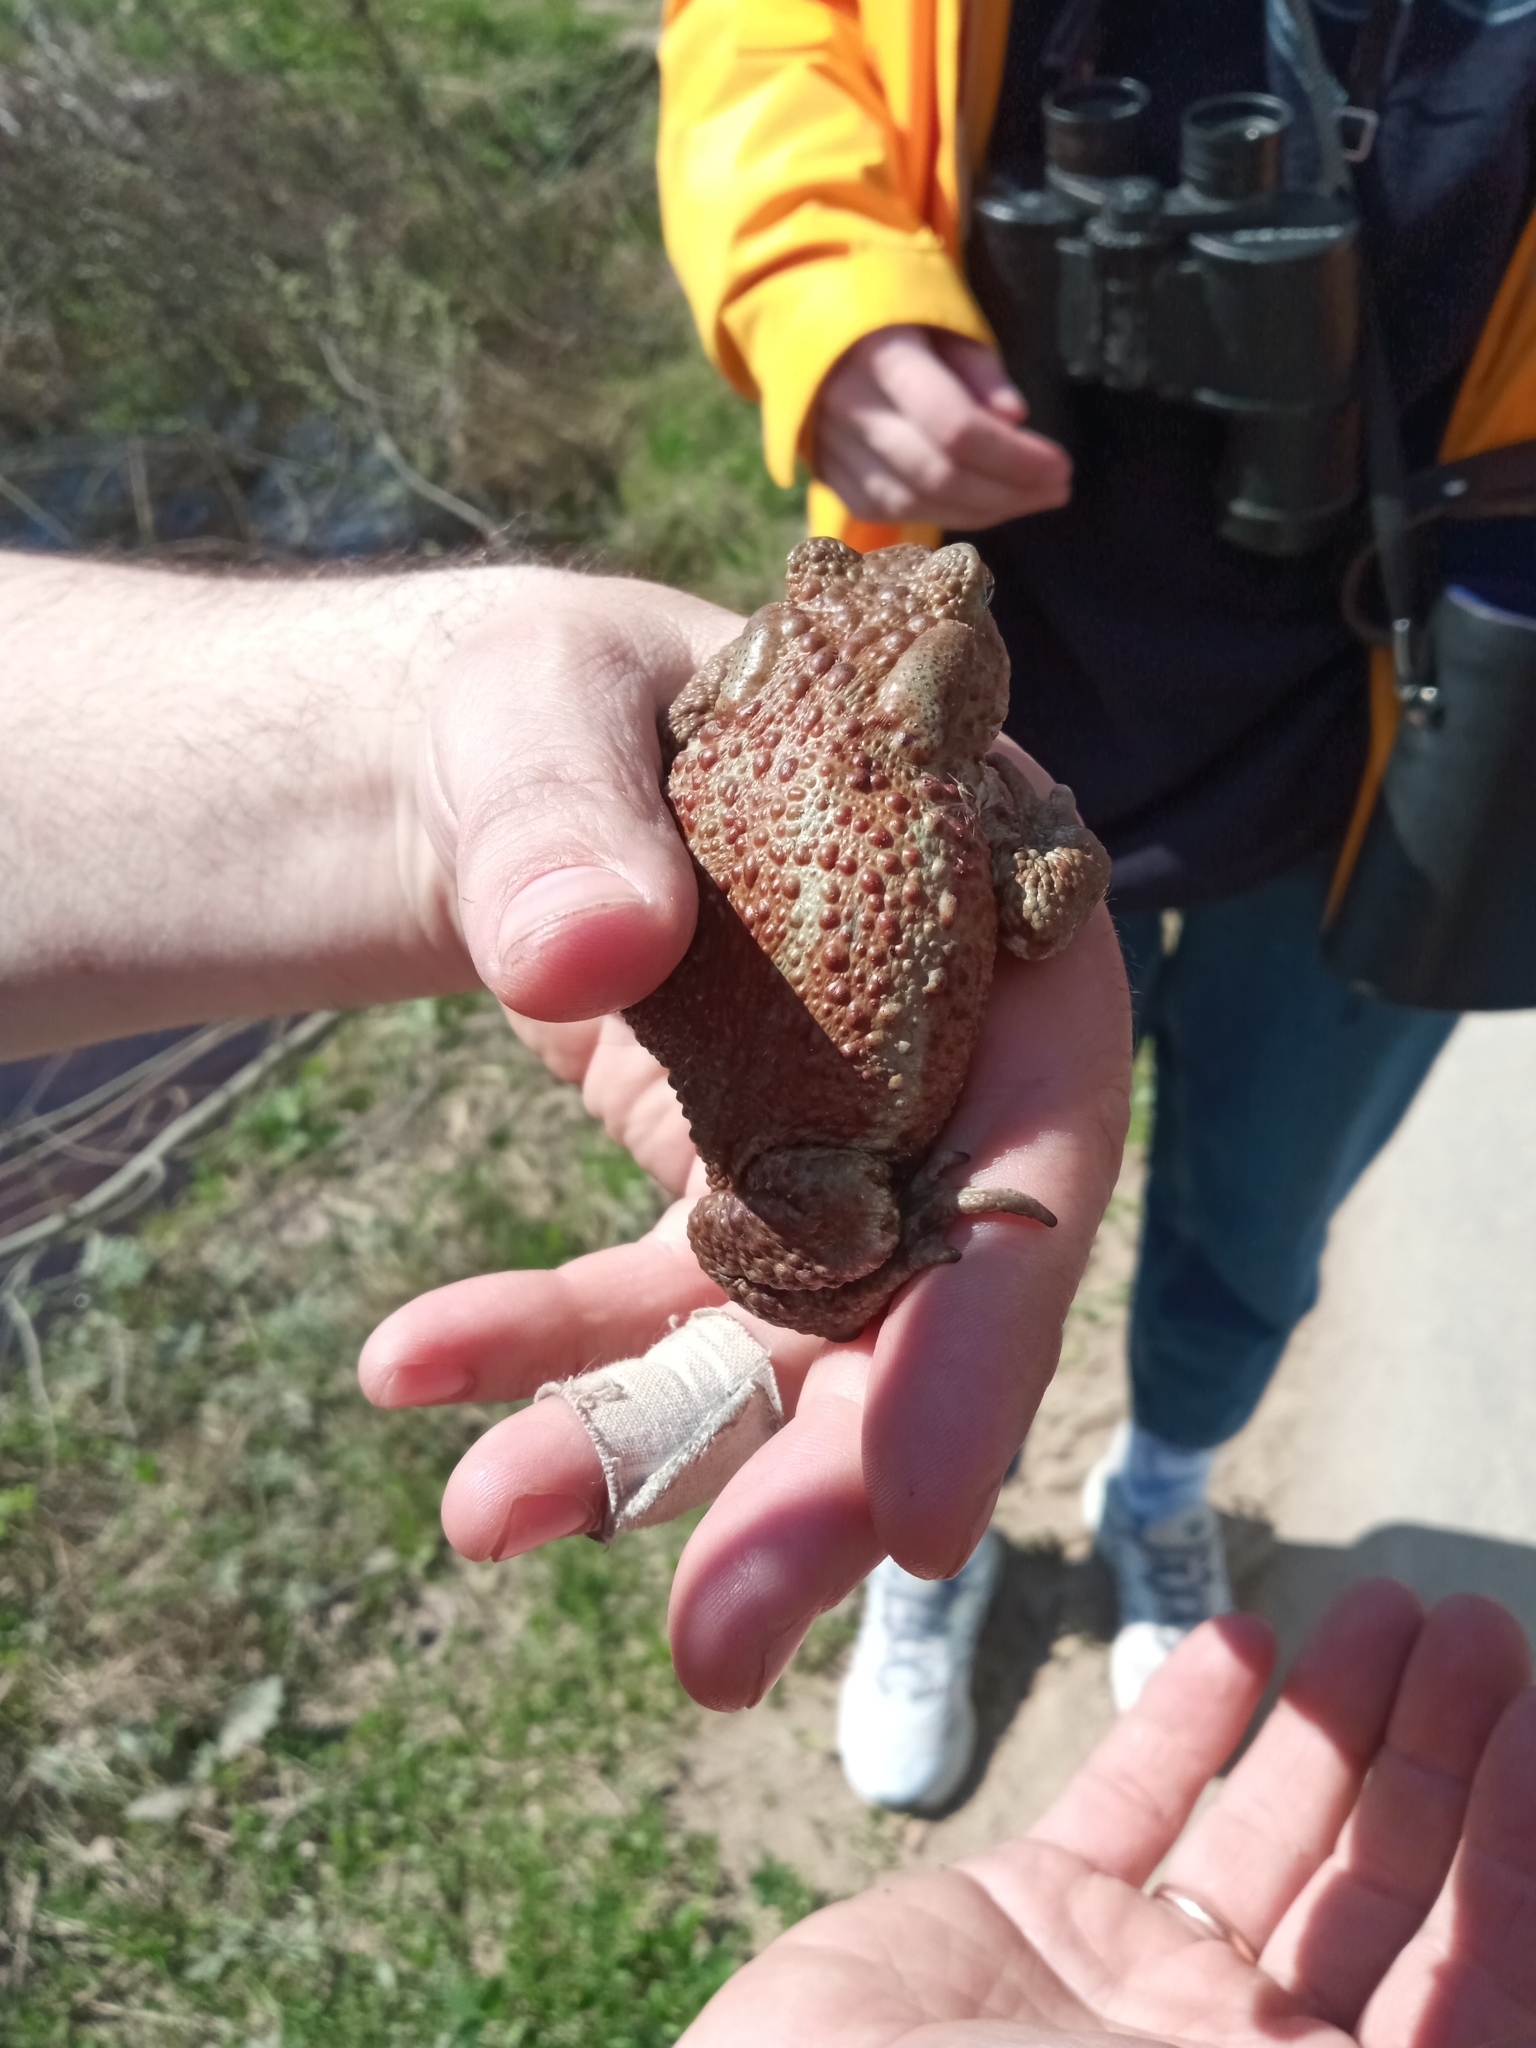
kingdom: Animalia
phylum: Chordata
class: Amphibia
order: Anura
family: Bufonidae
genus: Bufo
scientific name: Bufo bufo
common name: Common toad
